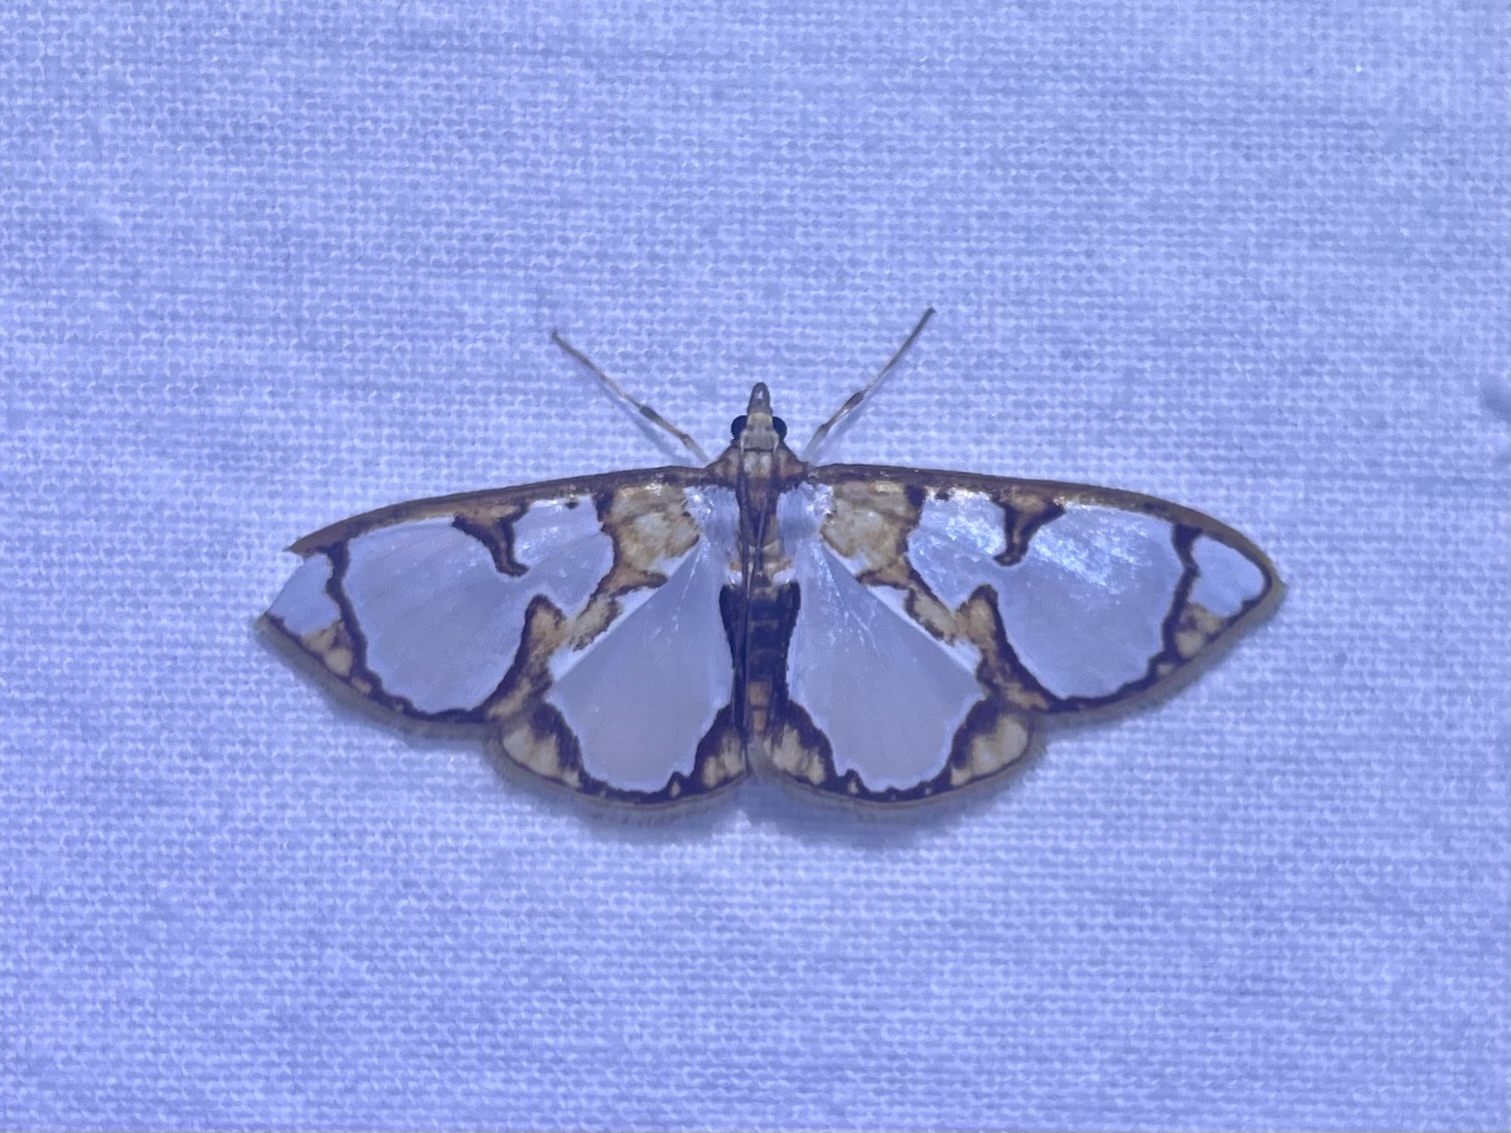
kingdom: Animalia
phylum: Arthropoda
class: Insecta
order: Lepidoptera
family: Crambidae
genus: Glyphodes
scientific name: Glyphodes grandisalis
